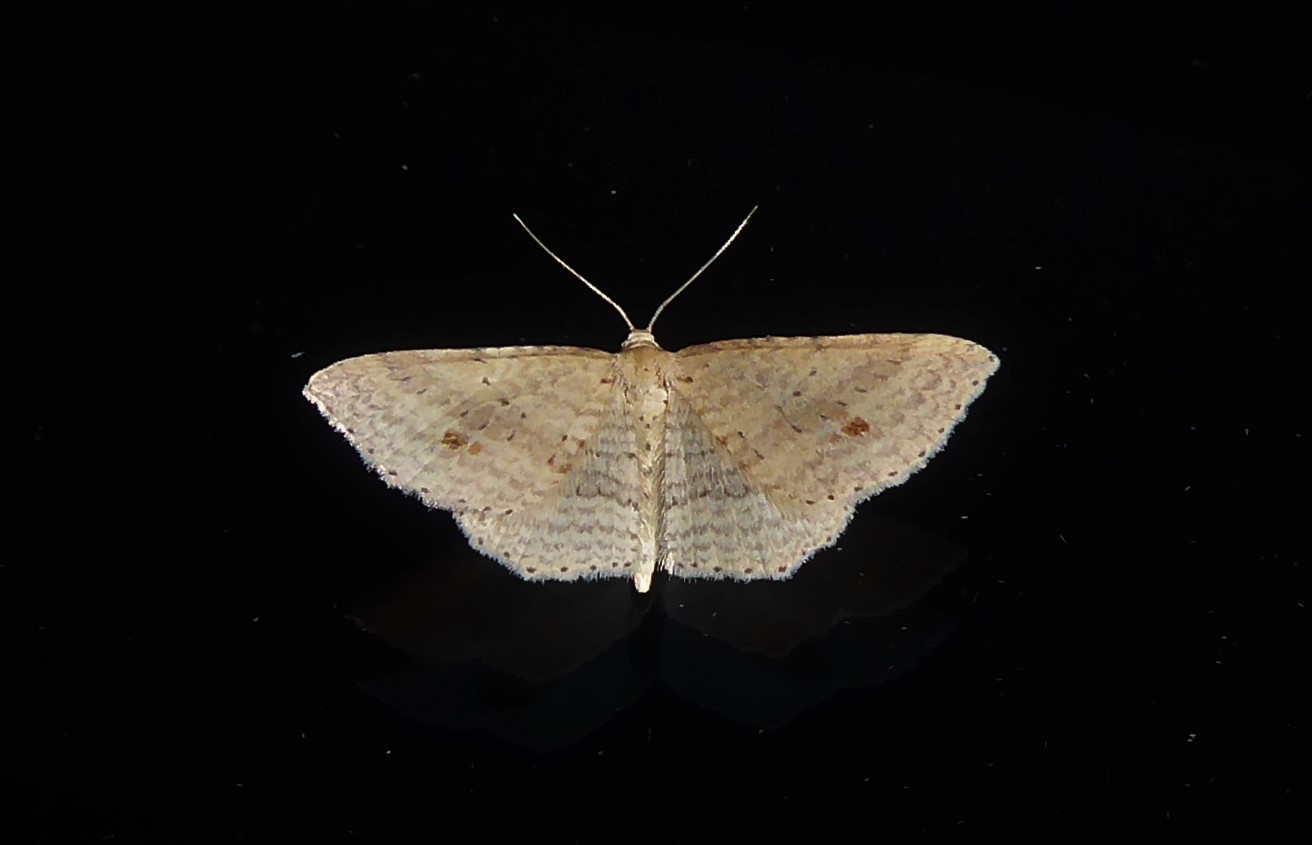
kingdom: Animalia
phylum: Arthropoda
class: Insecta
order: Lepidoptera
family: Geometridae
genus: Epicyme
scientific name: Epicyme rubropunctaria
